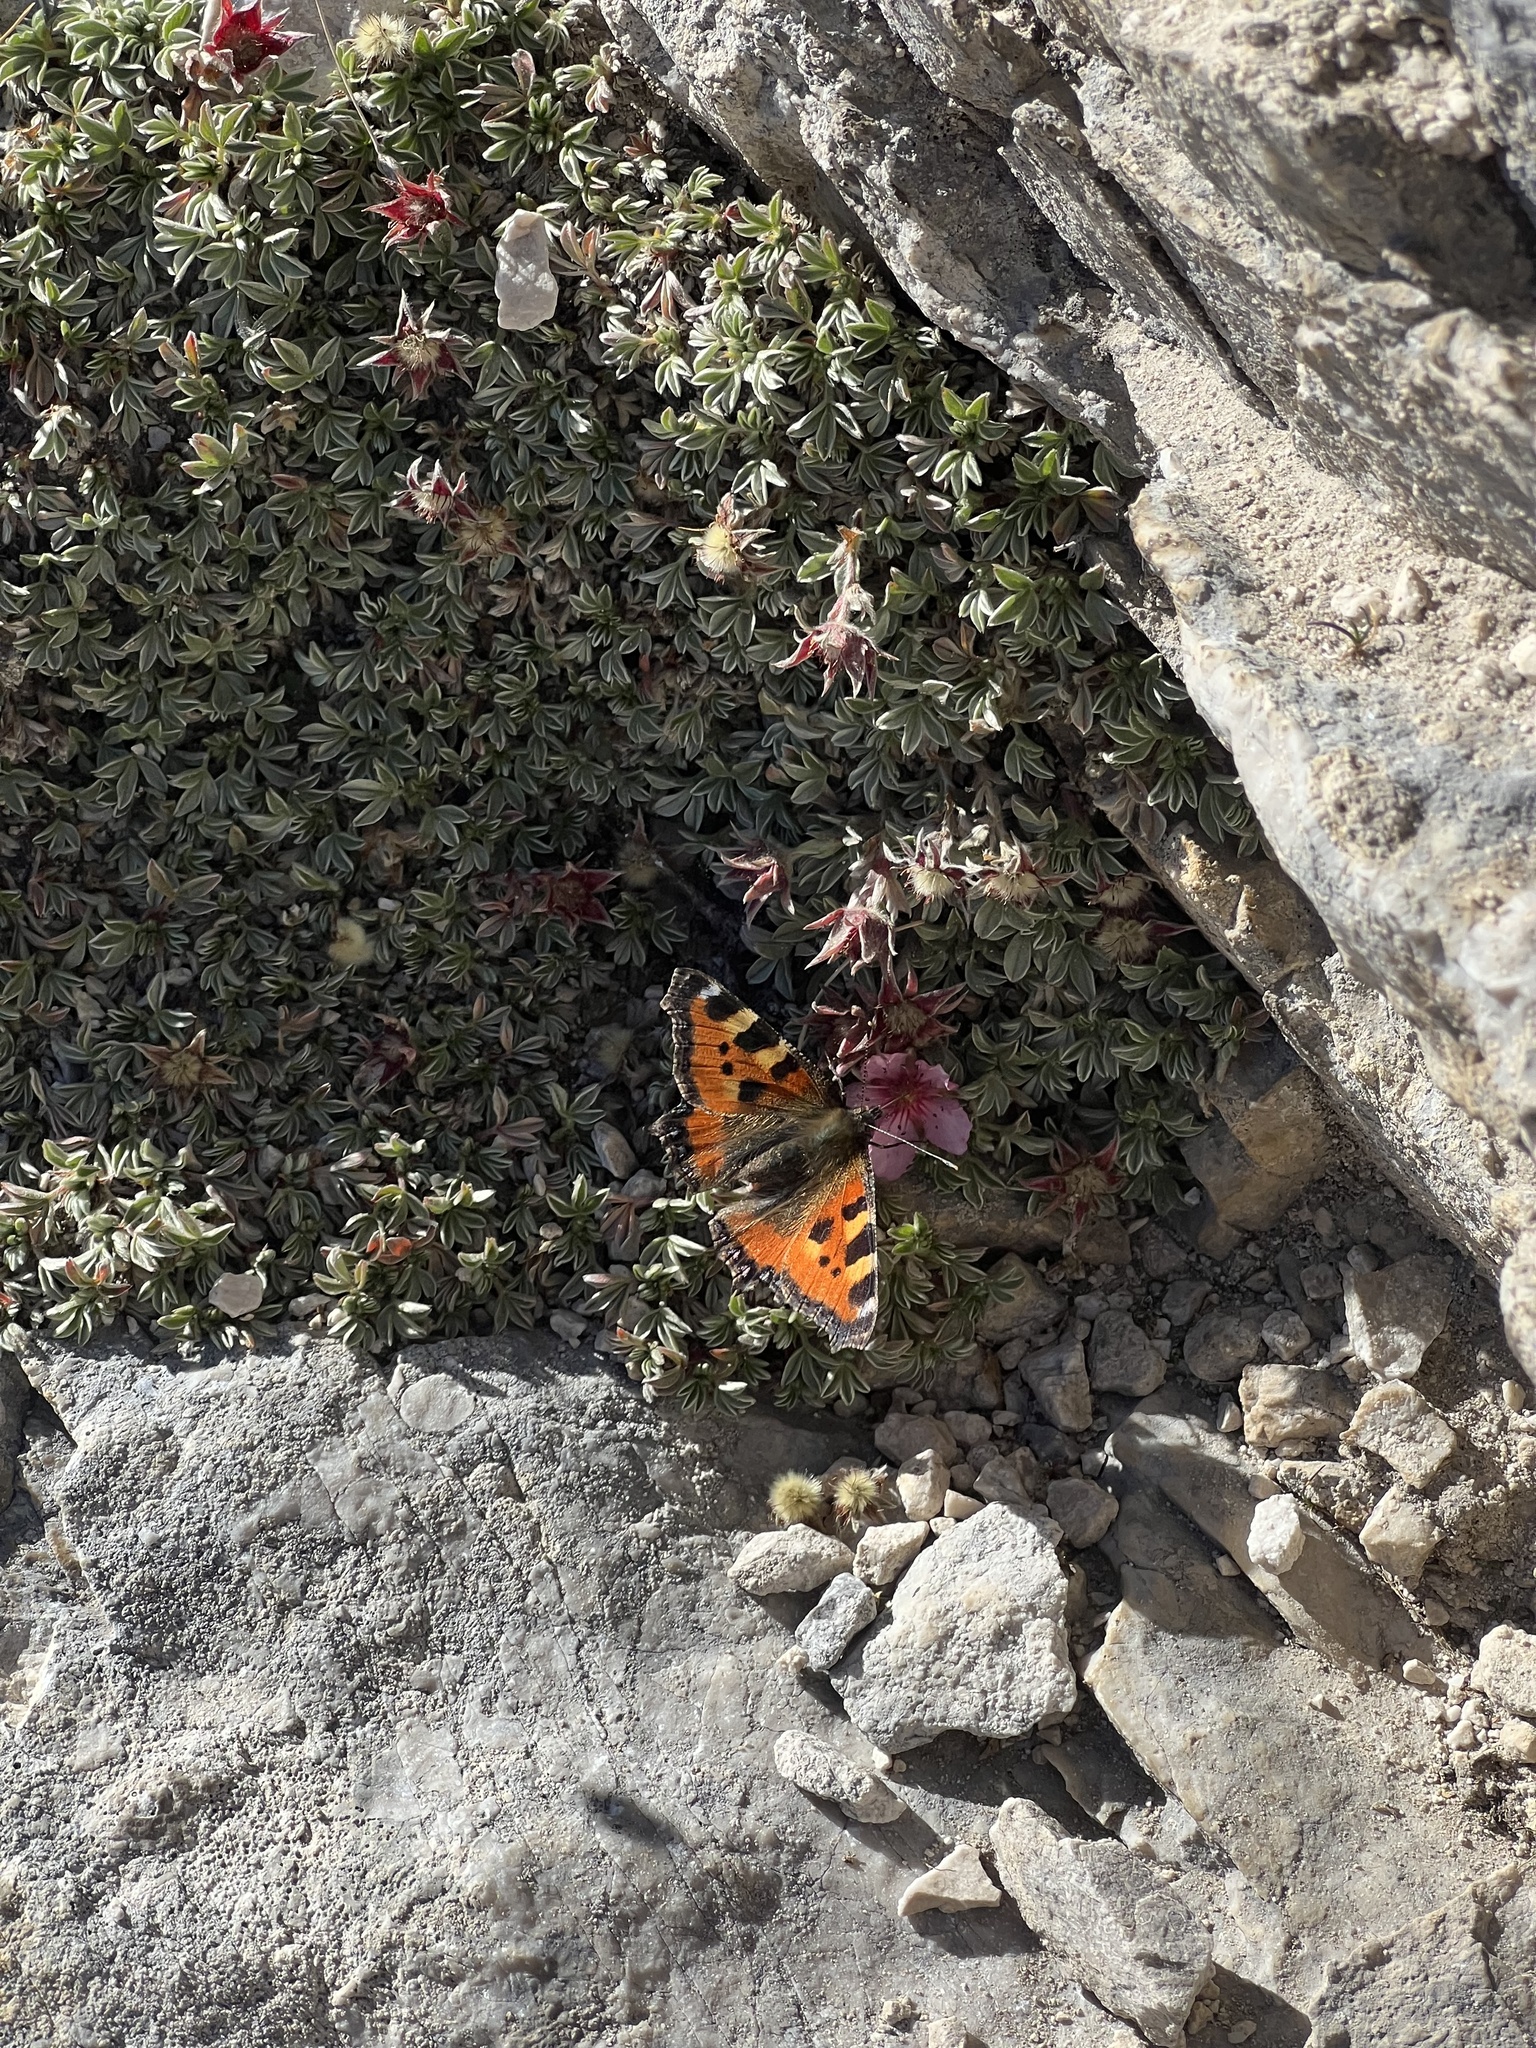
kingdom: Animalia
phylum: Arthropoda
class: Insecta
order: Lepidoptera
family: Nymphalidae
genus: Aglais
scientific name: Aglais urticae
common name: Small tortoiseshell
